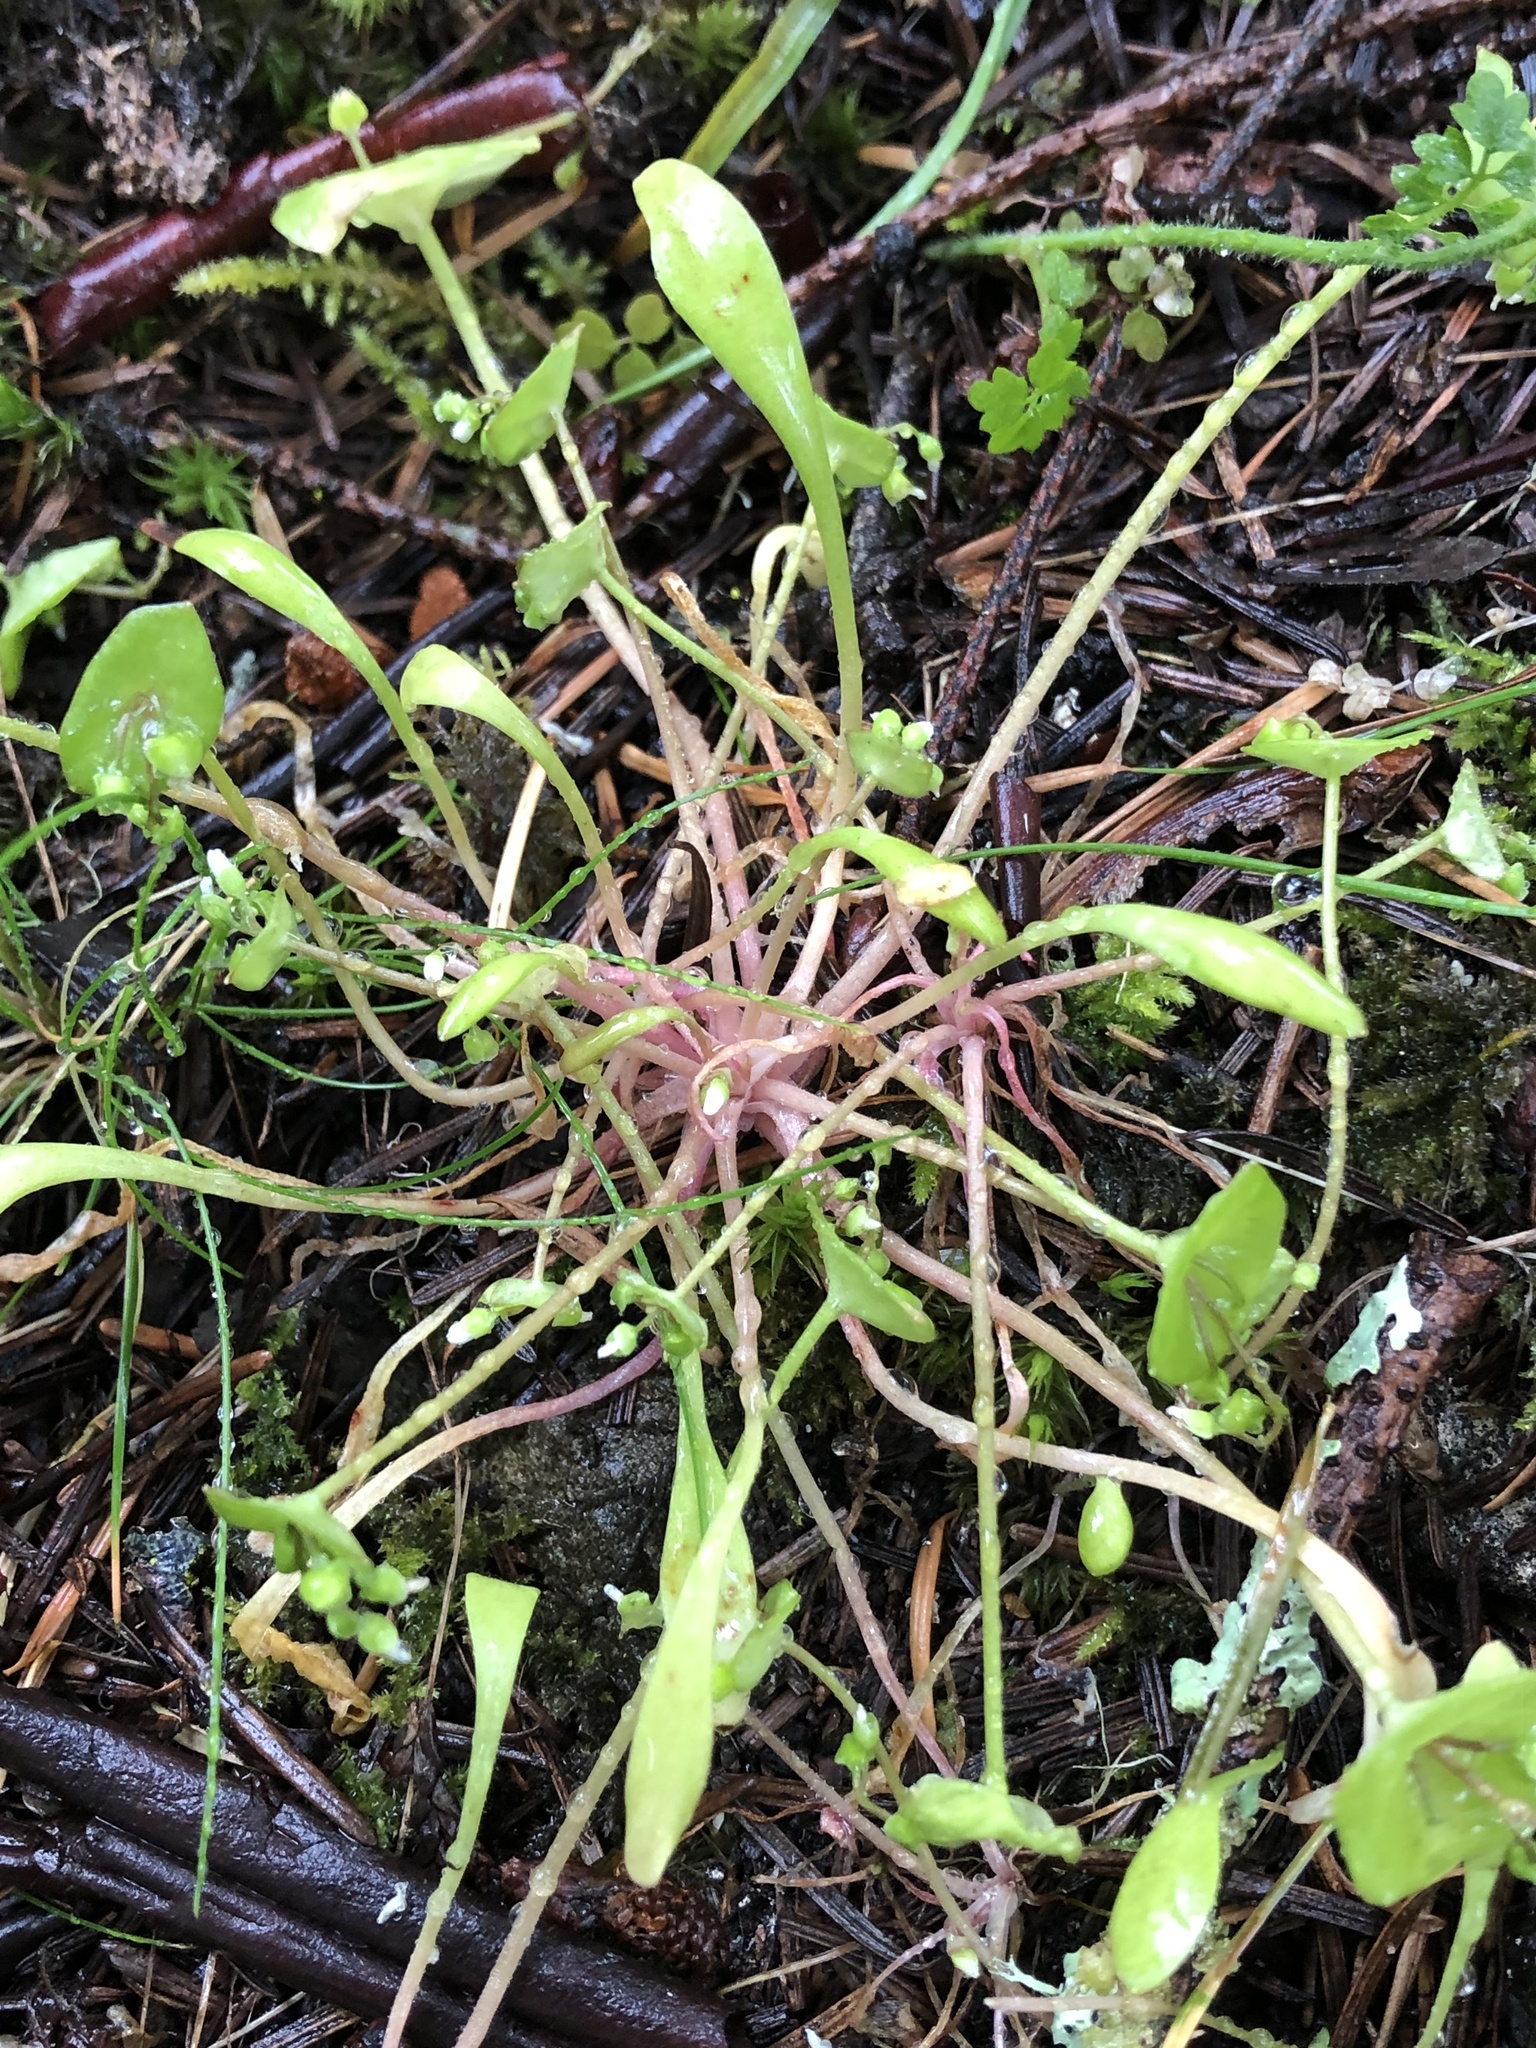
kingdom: Plantae
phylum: Tracheophyta
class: Magnoliopsida
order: Caryophyllales
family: Montiaceae
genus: Claytonia
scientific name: Claytonia parviflora
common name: Indian-lettuce
